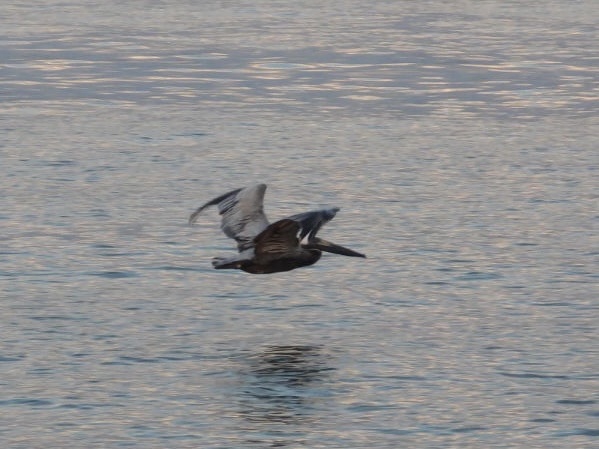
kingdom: Animalia
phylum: Chordata
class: Aves
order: Pelecaniformes
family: Pelecanidae
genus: Pelecanus
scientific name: Pelecanus occidentalis
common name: Brown pelican
